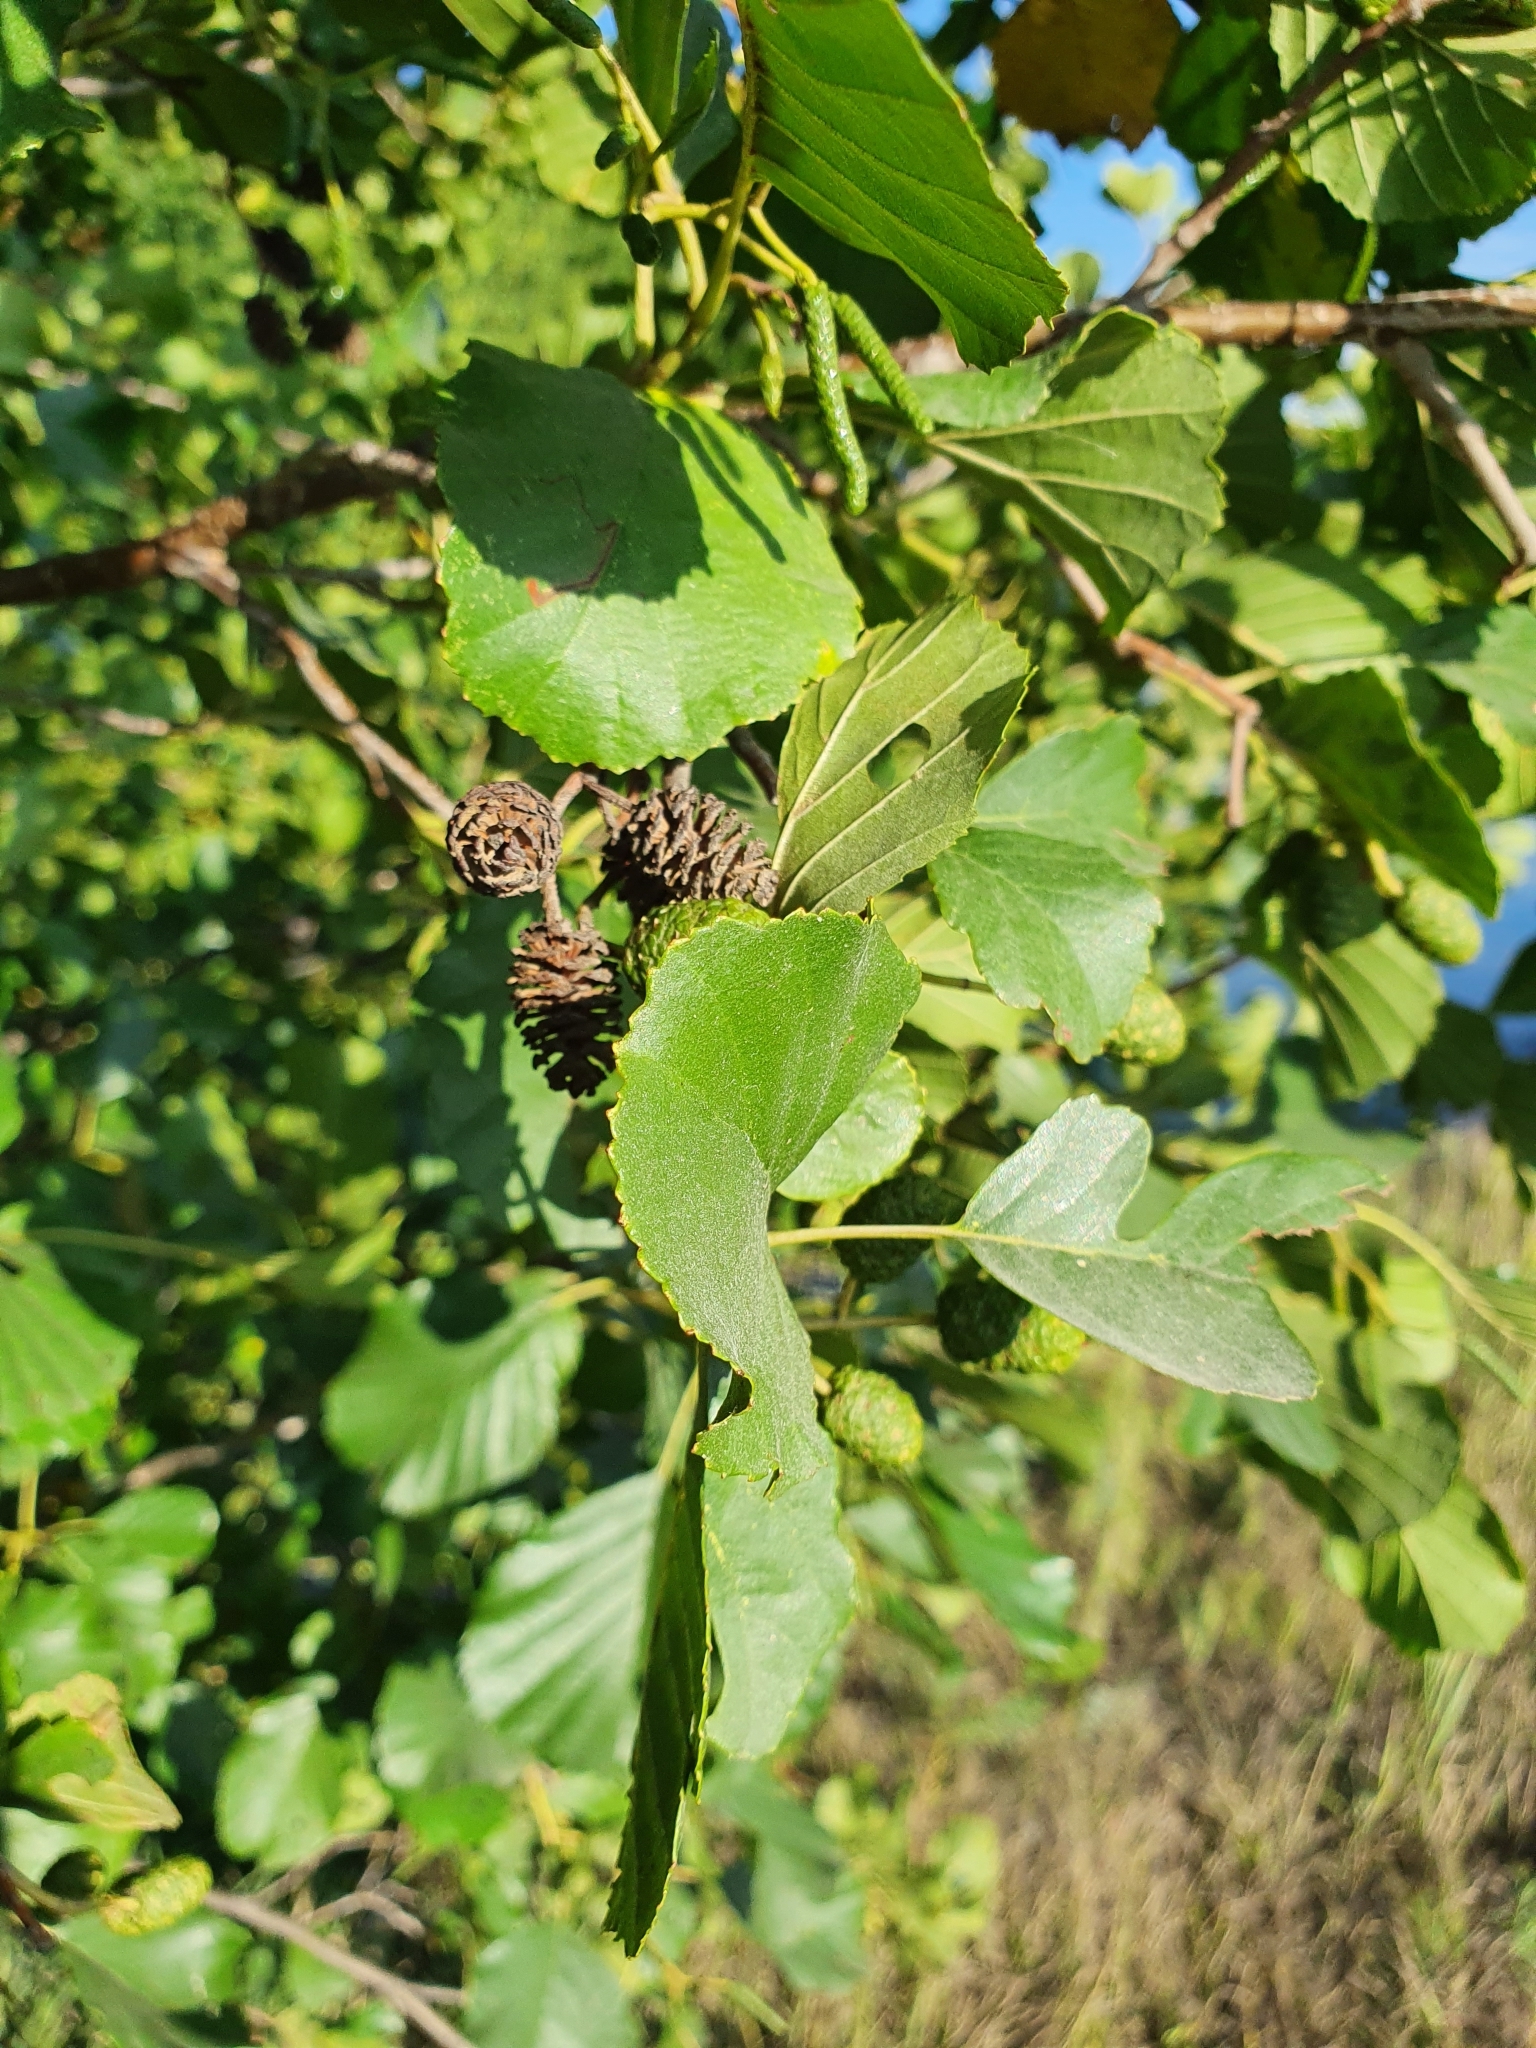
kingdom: Plantae
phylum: Tracheophyta
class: Magnoliopsida
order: Fagales
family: Betulaceae
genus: Alnus
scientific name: Alnus glutinosa
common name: Black alder
